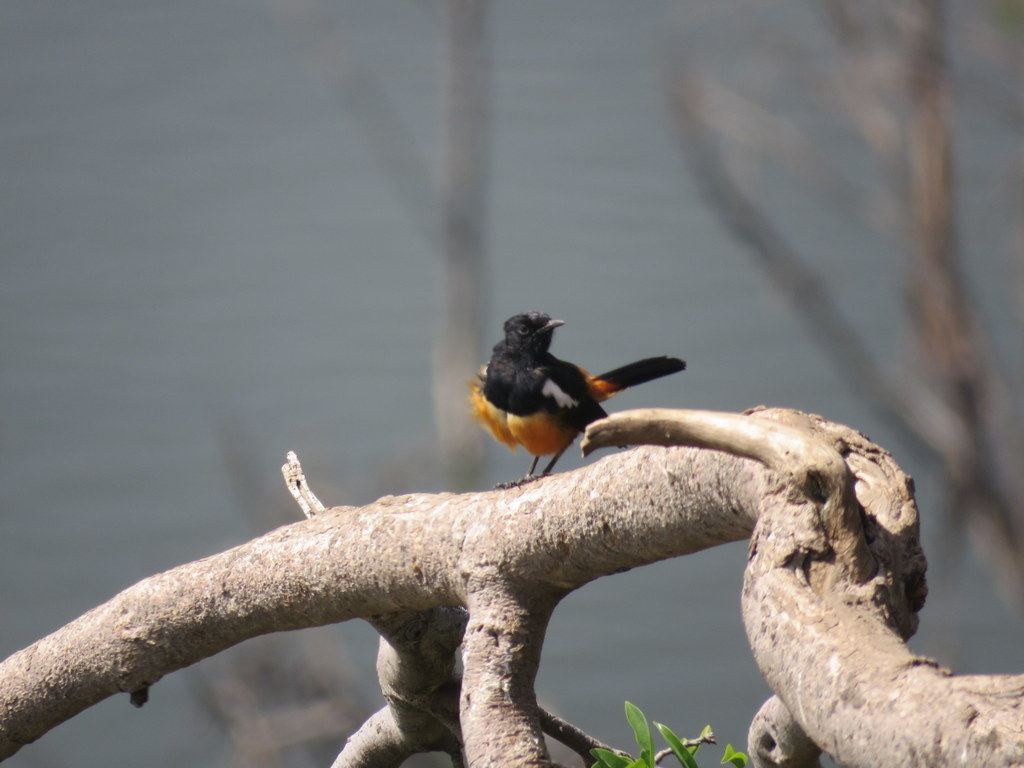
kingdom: Animalia
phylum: Chordata
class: Aves
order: Passeriformes
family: Muscicapidae
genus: Thamnolaea
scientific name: Thamnolaea cinnamomeiventris
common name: Mocking cliff chat
